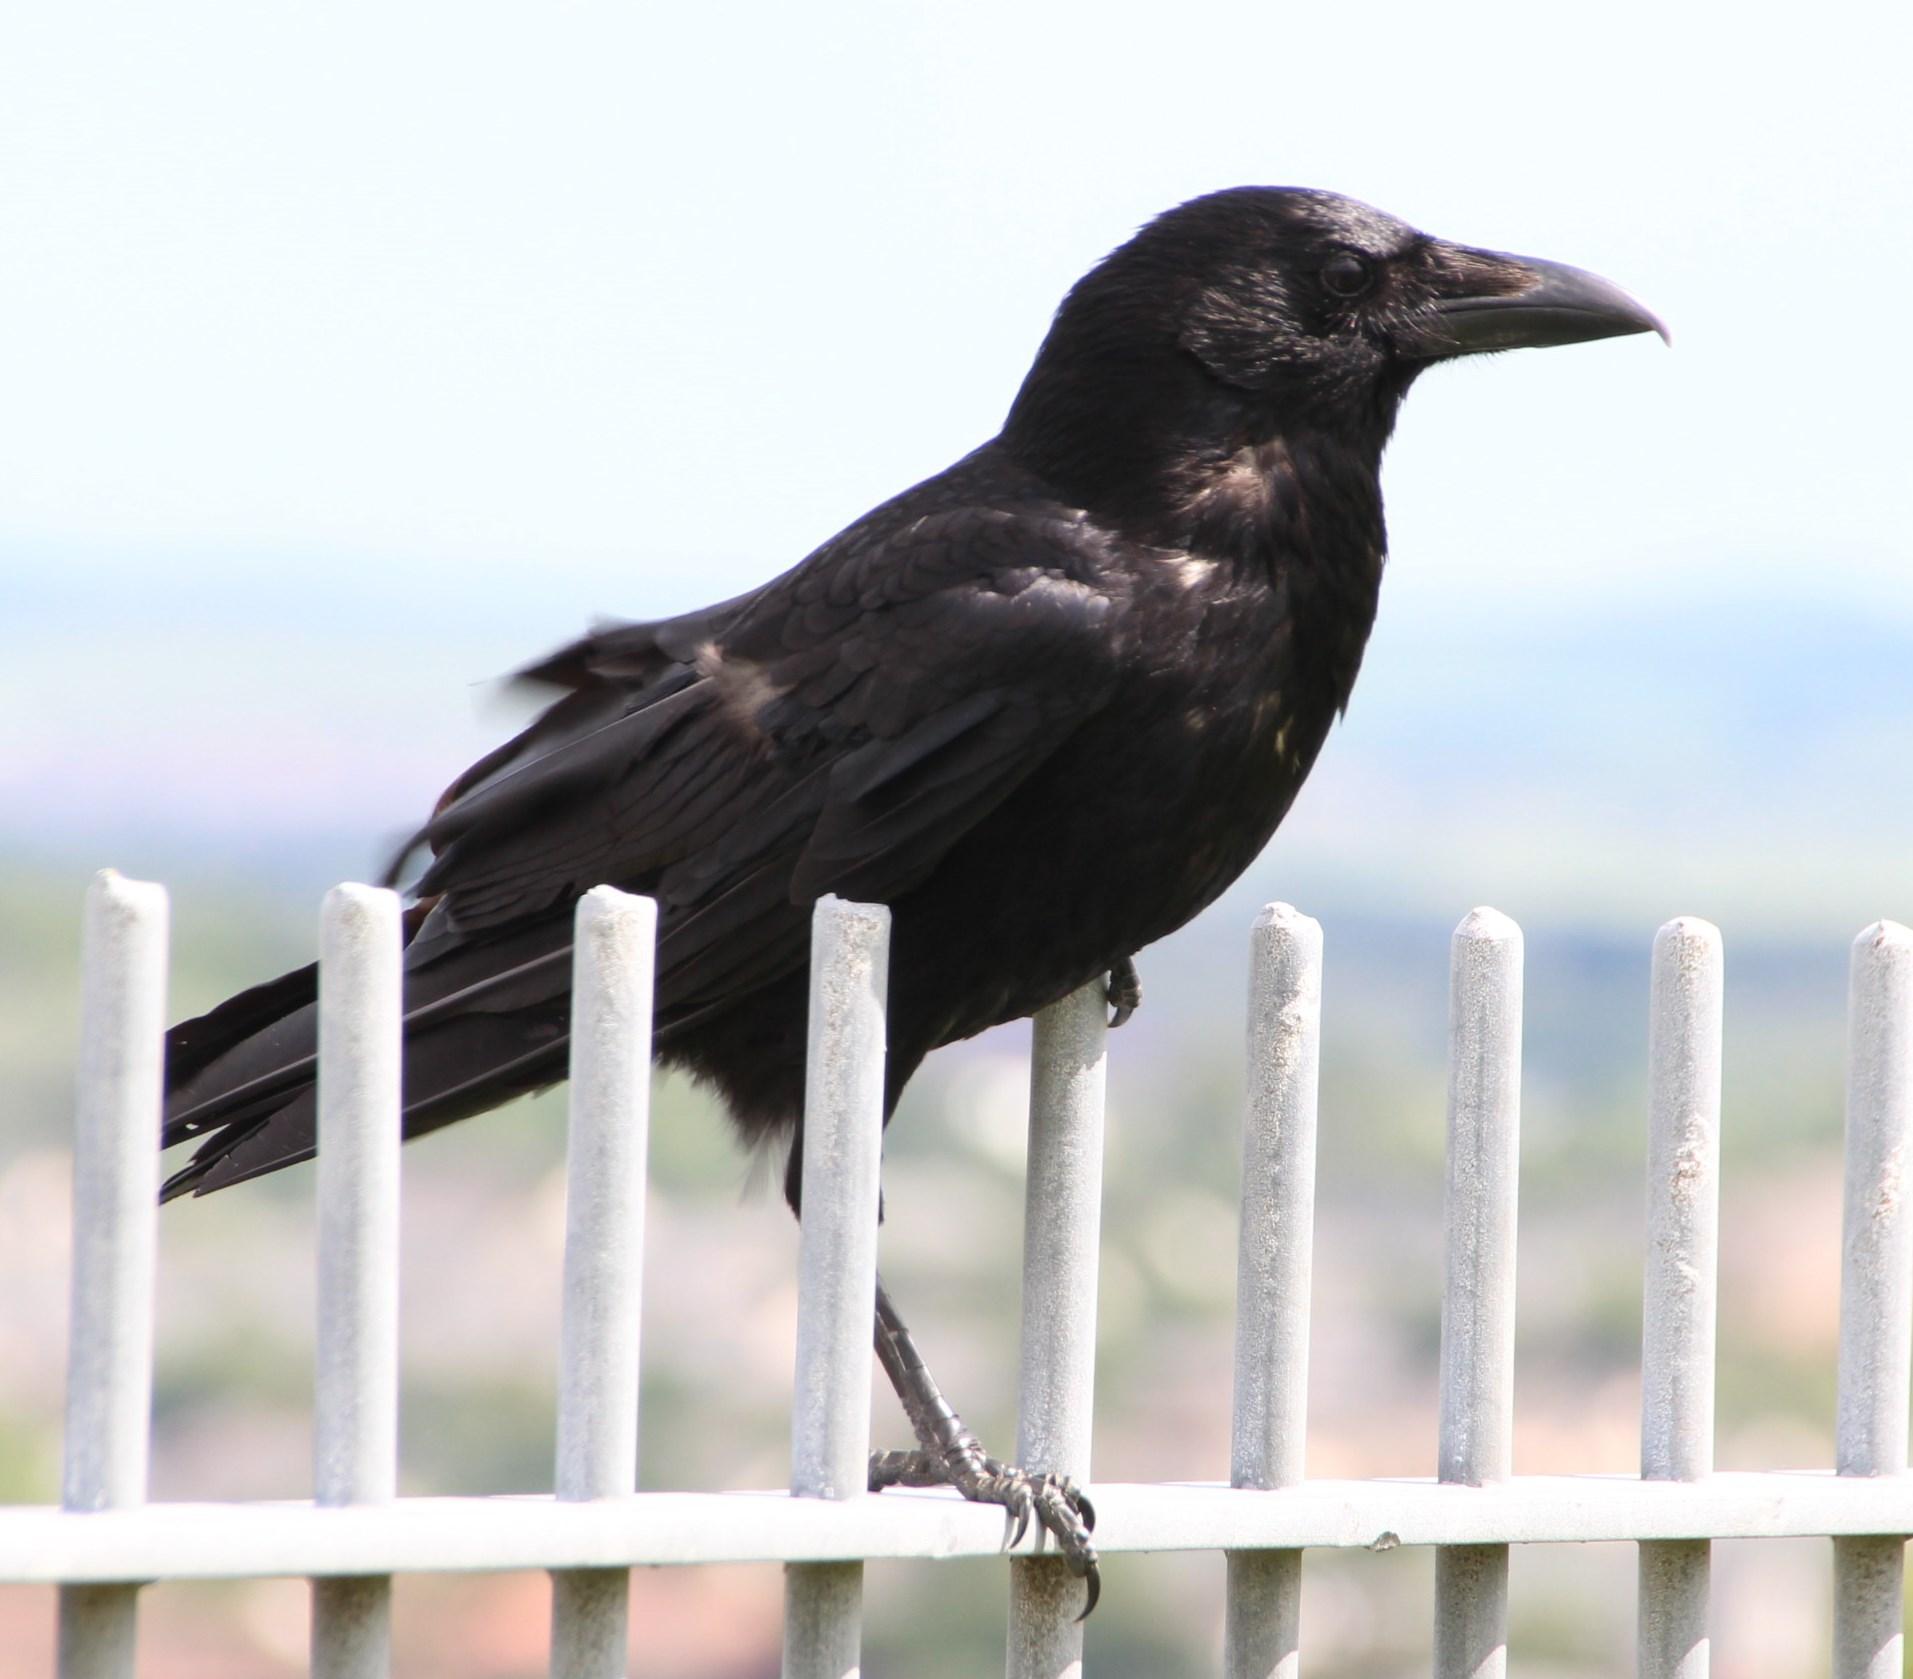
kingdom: Animalia
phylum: Chordata
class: Aves
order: Passeriformes
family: Corvidae
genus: Corvus
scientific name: Corvus corone
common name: Carrion crow
